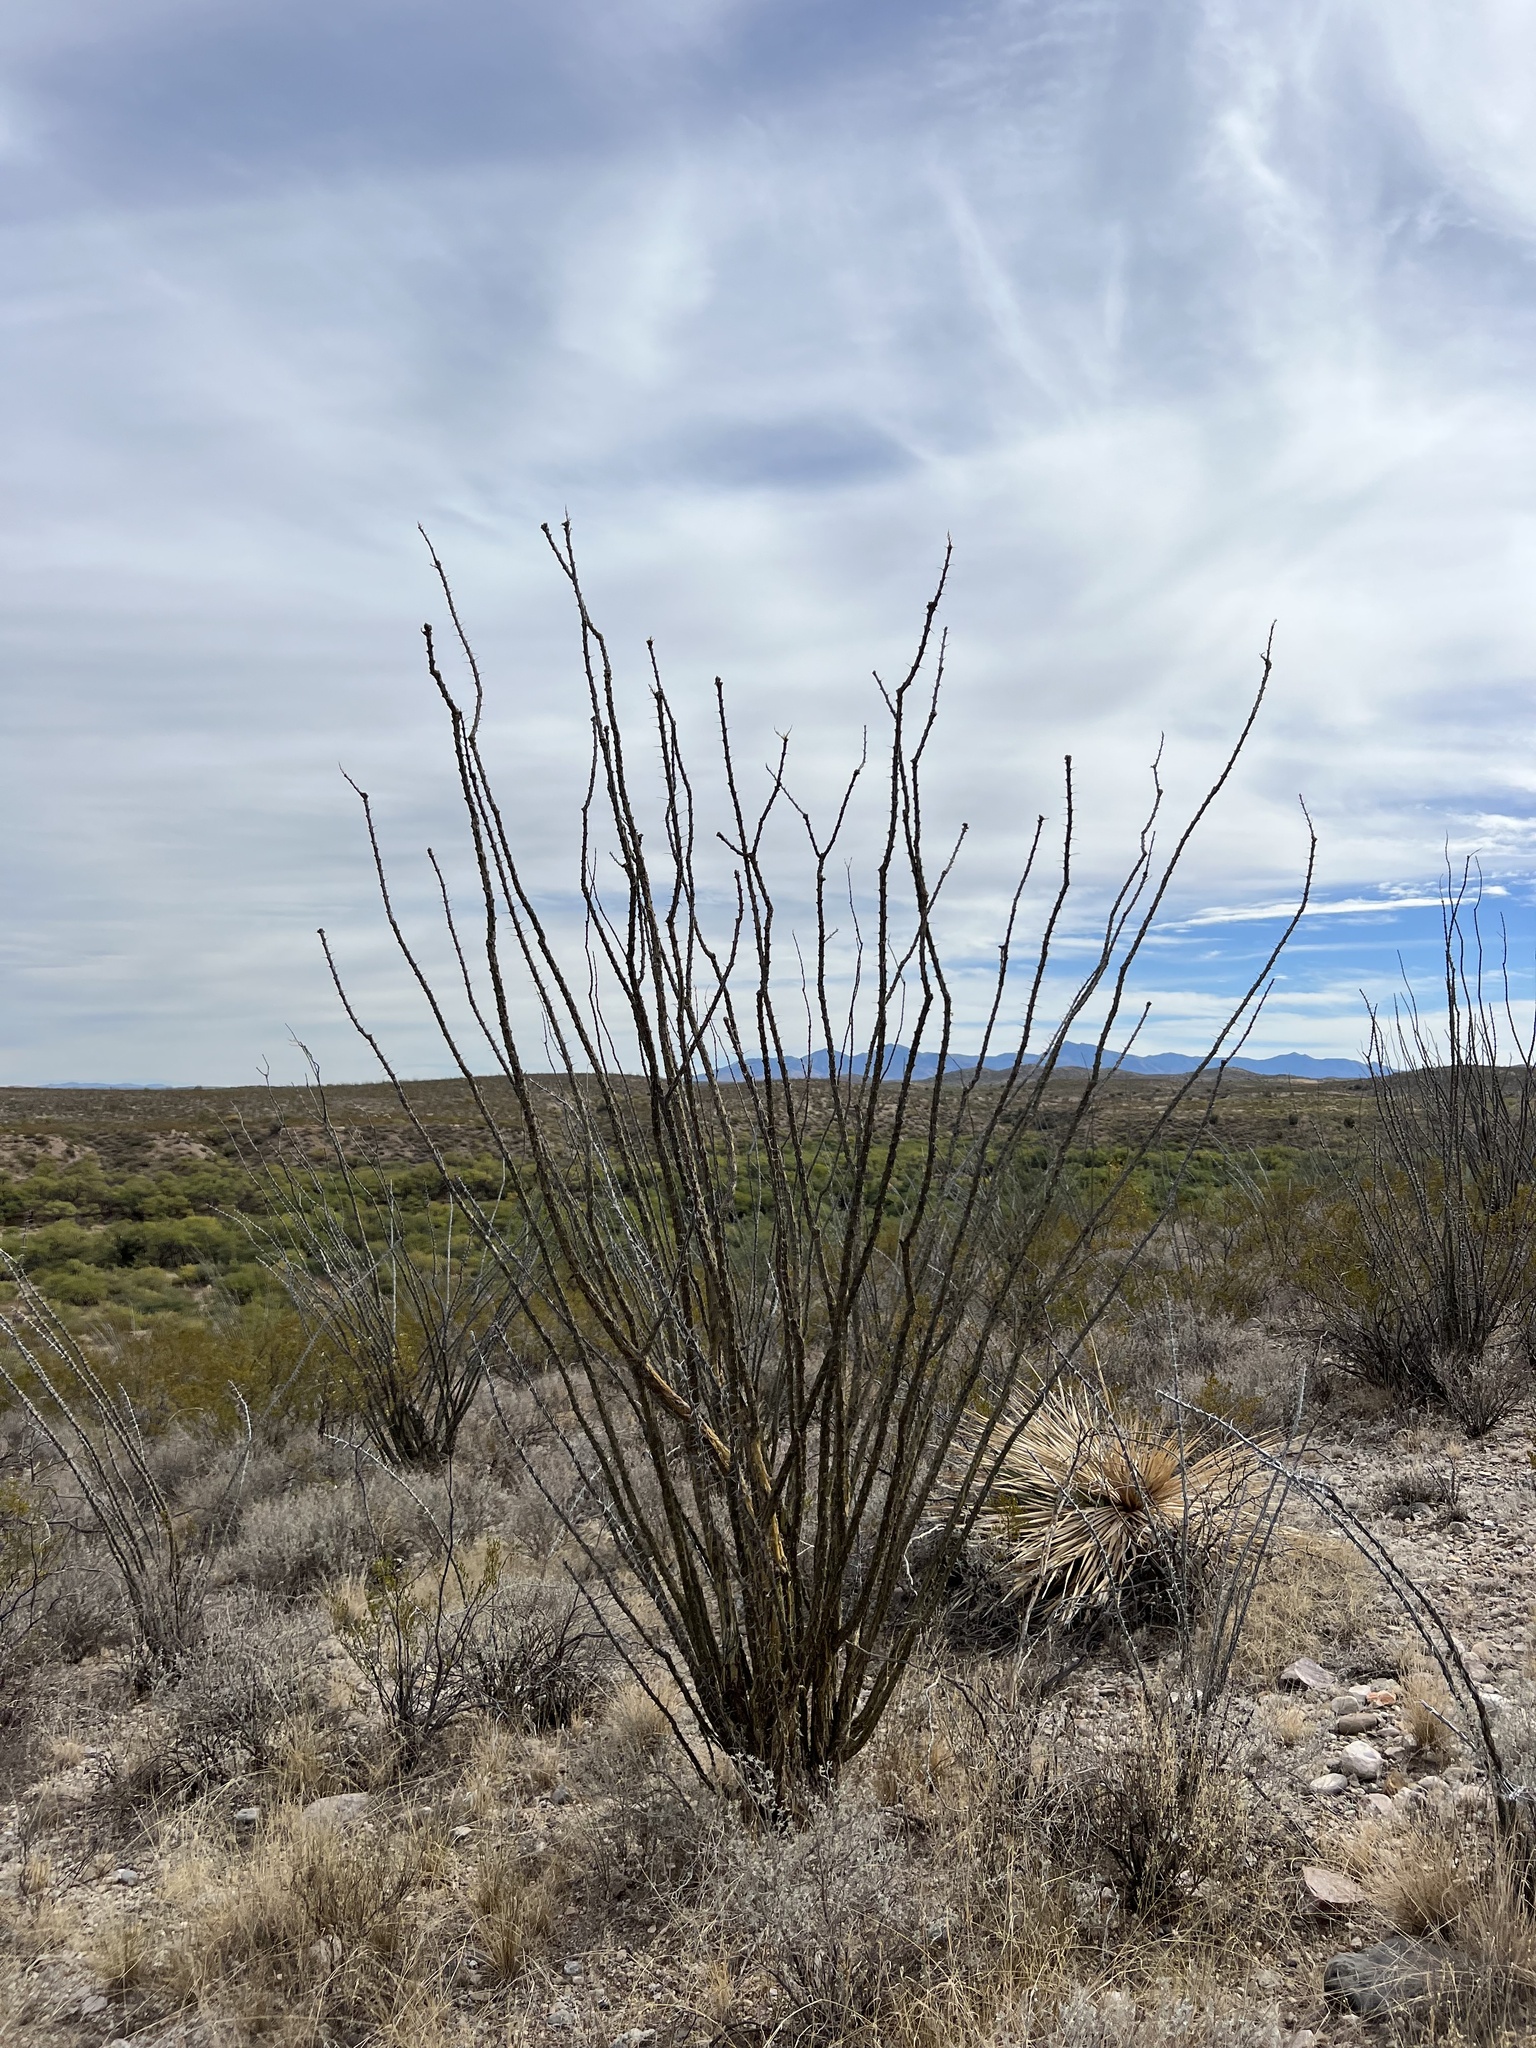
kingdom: Plantae
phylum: Tracheophyta
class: Magnoliopsida
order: Ericales
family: Fouquieriaceae
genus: Fouquieria
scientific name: Fouquieria splendens
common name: Vine-cactus
